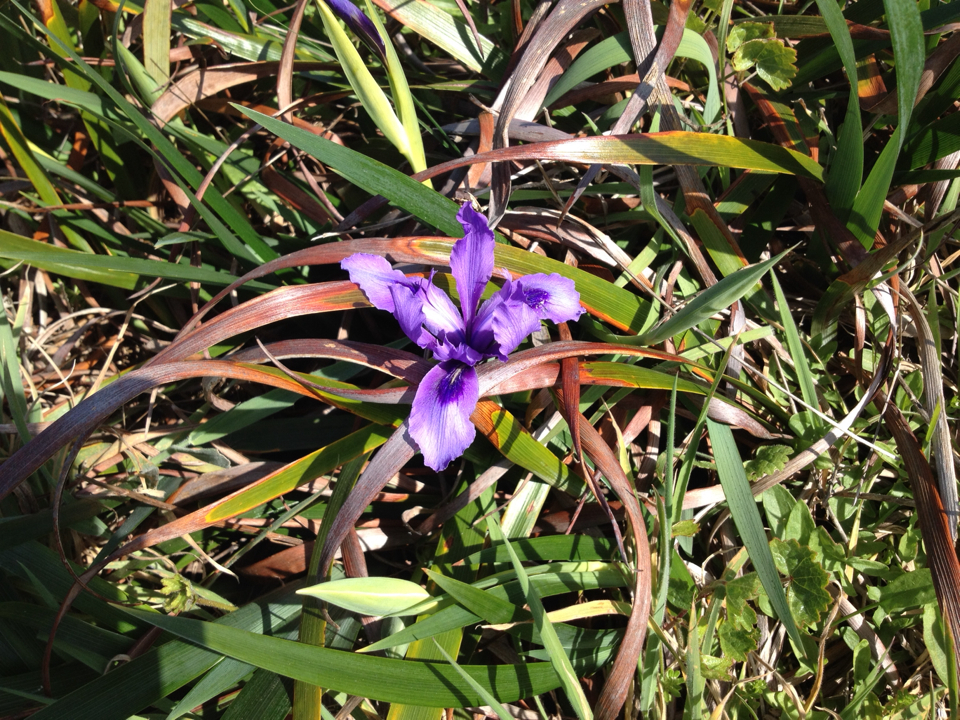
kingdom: Plantae
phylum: Tracheophyta
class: Liliopsida
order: Asparagales
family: Iridaceae
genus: Iris
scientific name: Iris douglasiana
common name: Marin iris
